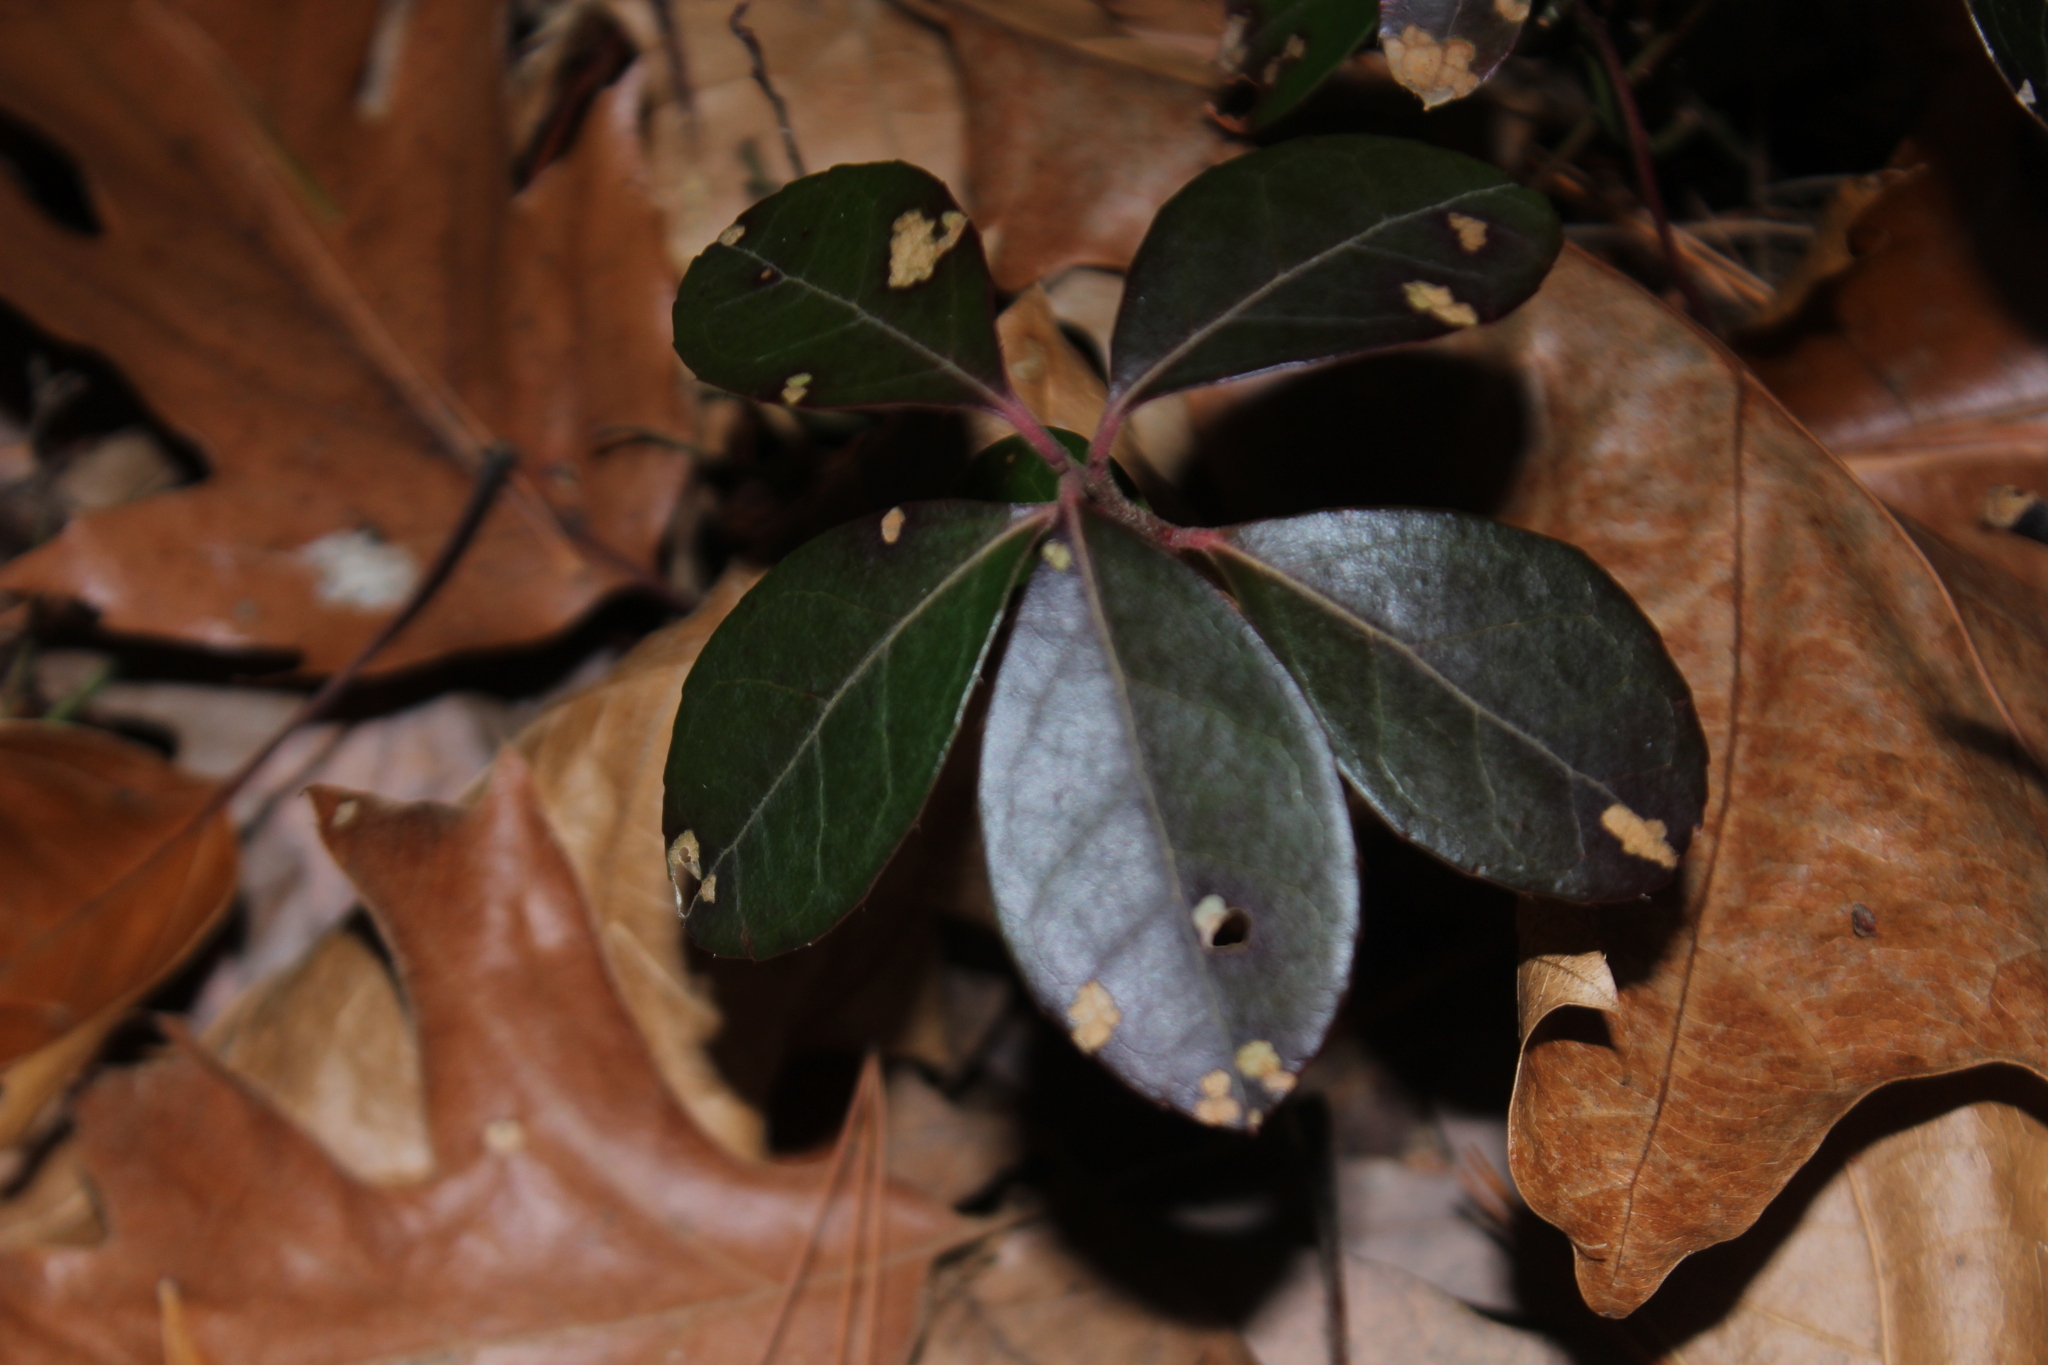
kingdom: Plantae
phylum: Tracheophyta
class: Magnoliopsida
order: Ericales
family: Ericaceae
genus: Gaultheria
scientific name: Gaultheria procumbens
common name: Checkerberry
